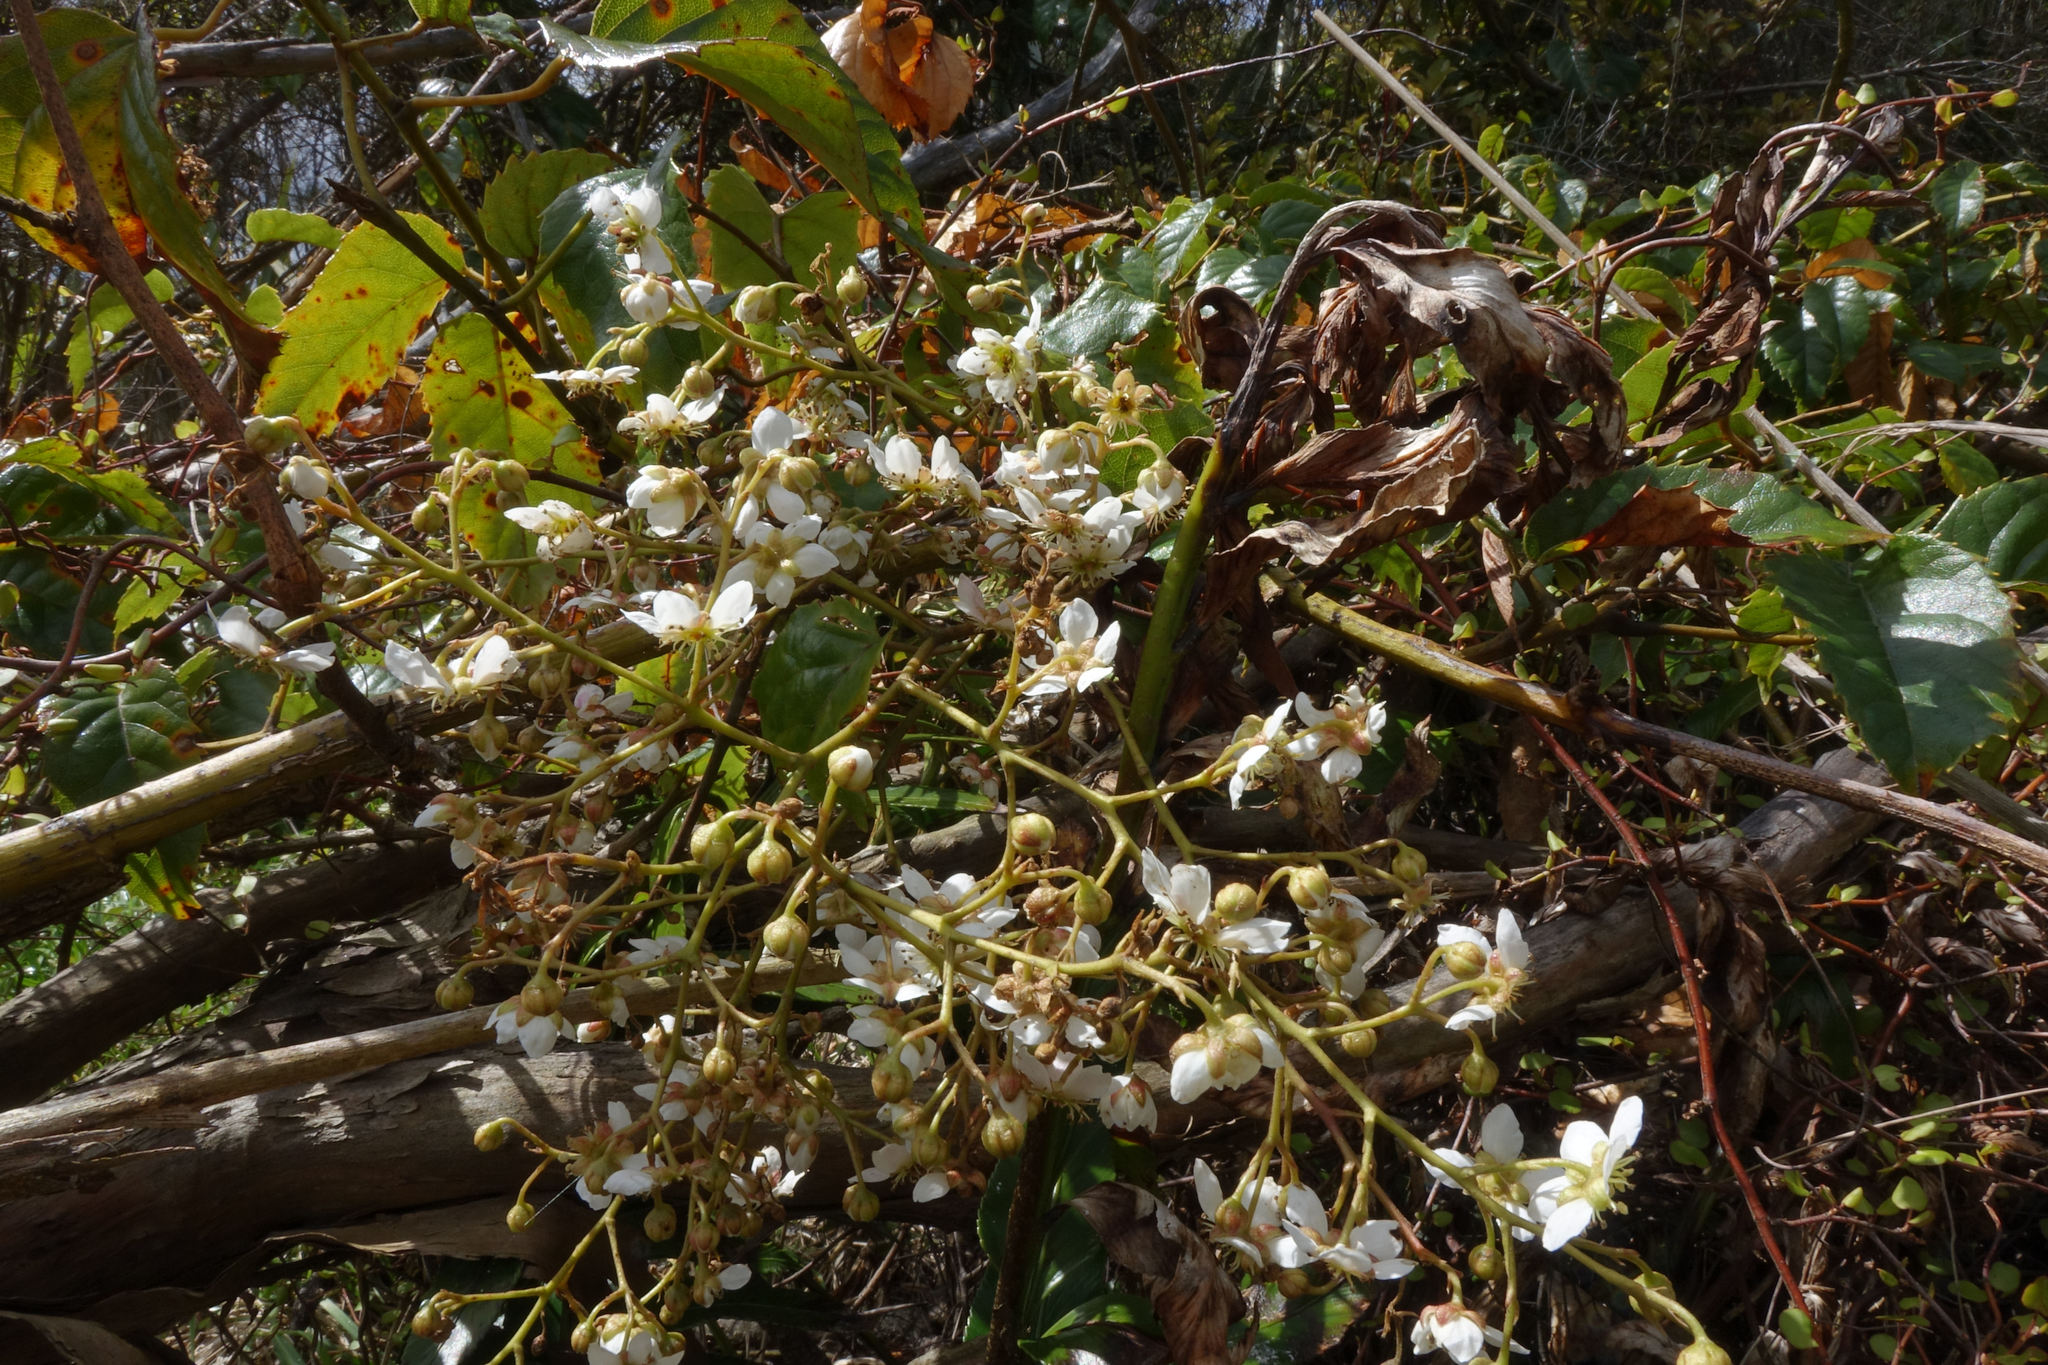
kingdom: Plantae
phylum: Tracheophyta
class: Magnoliopsida
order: Rosales
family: Rosaceae
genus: Rubus
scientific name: Rubus cissoides
